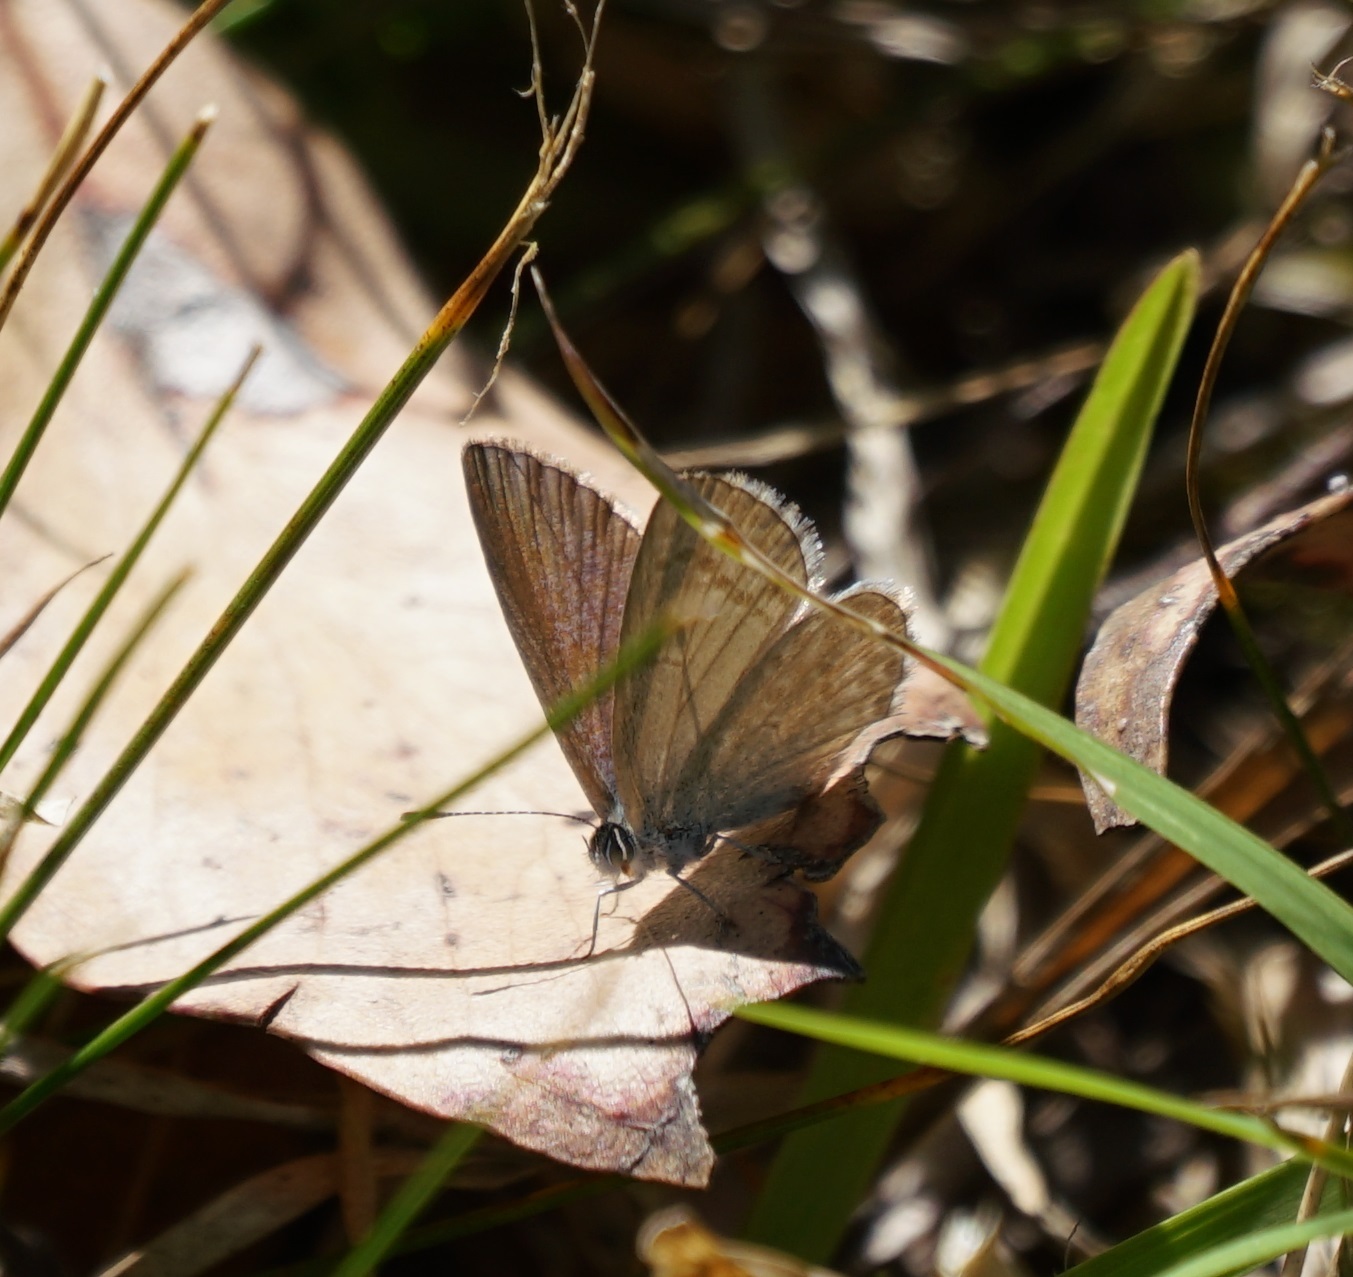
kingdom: Animalia
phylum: Arthropoda
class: Insecta
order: Lepidoptera
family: Lycaenidae
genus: Zizina
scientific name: Zizina labradus
